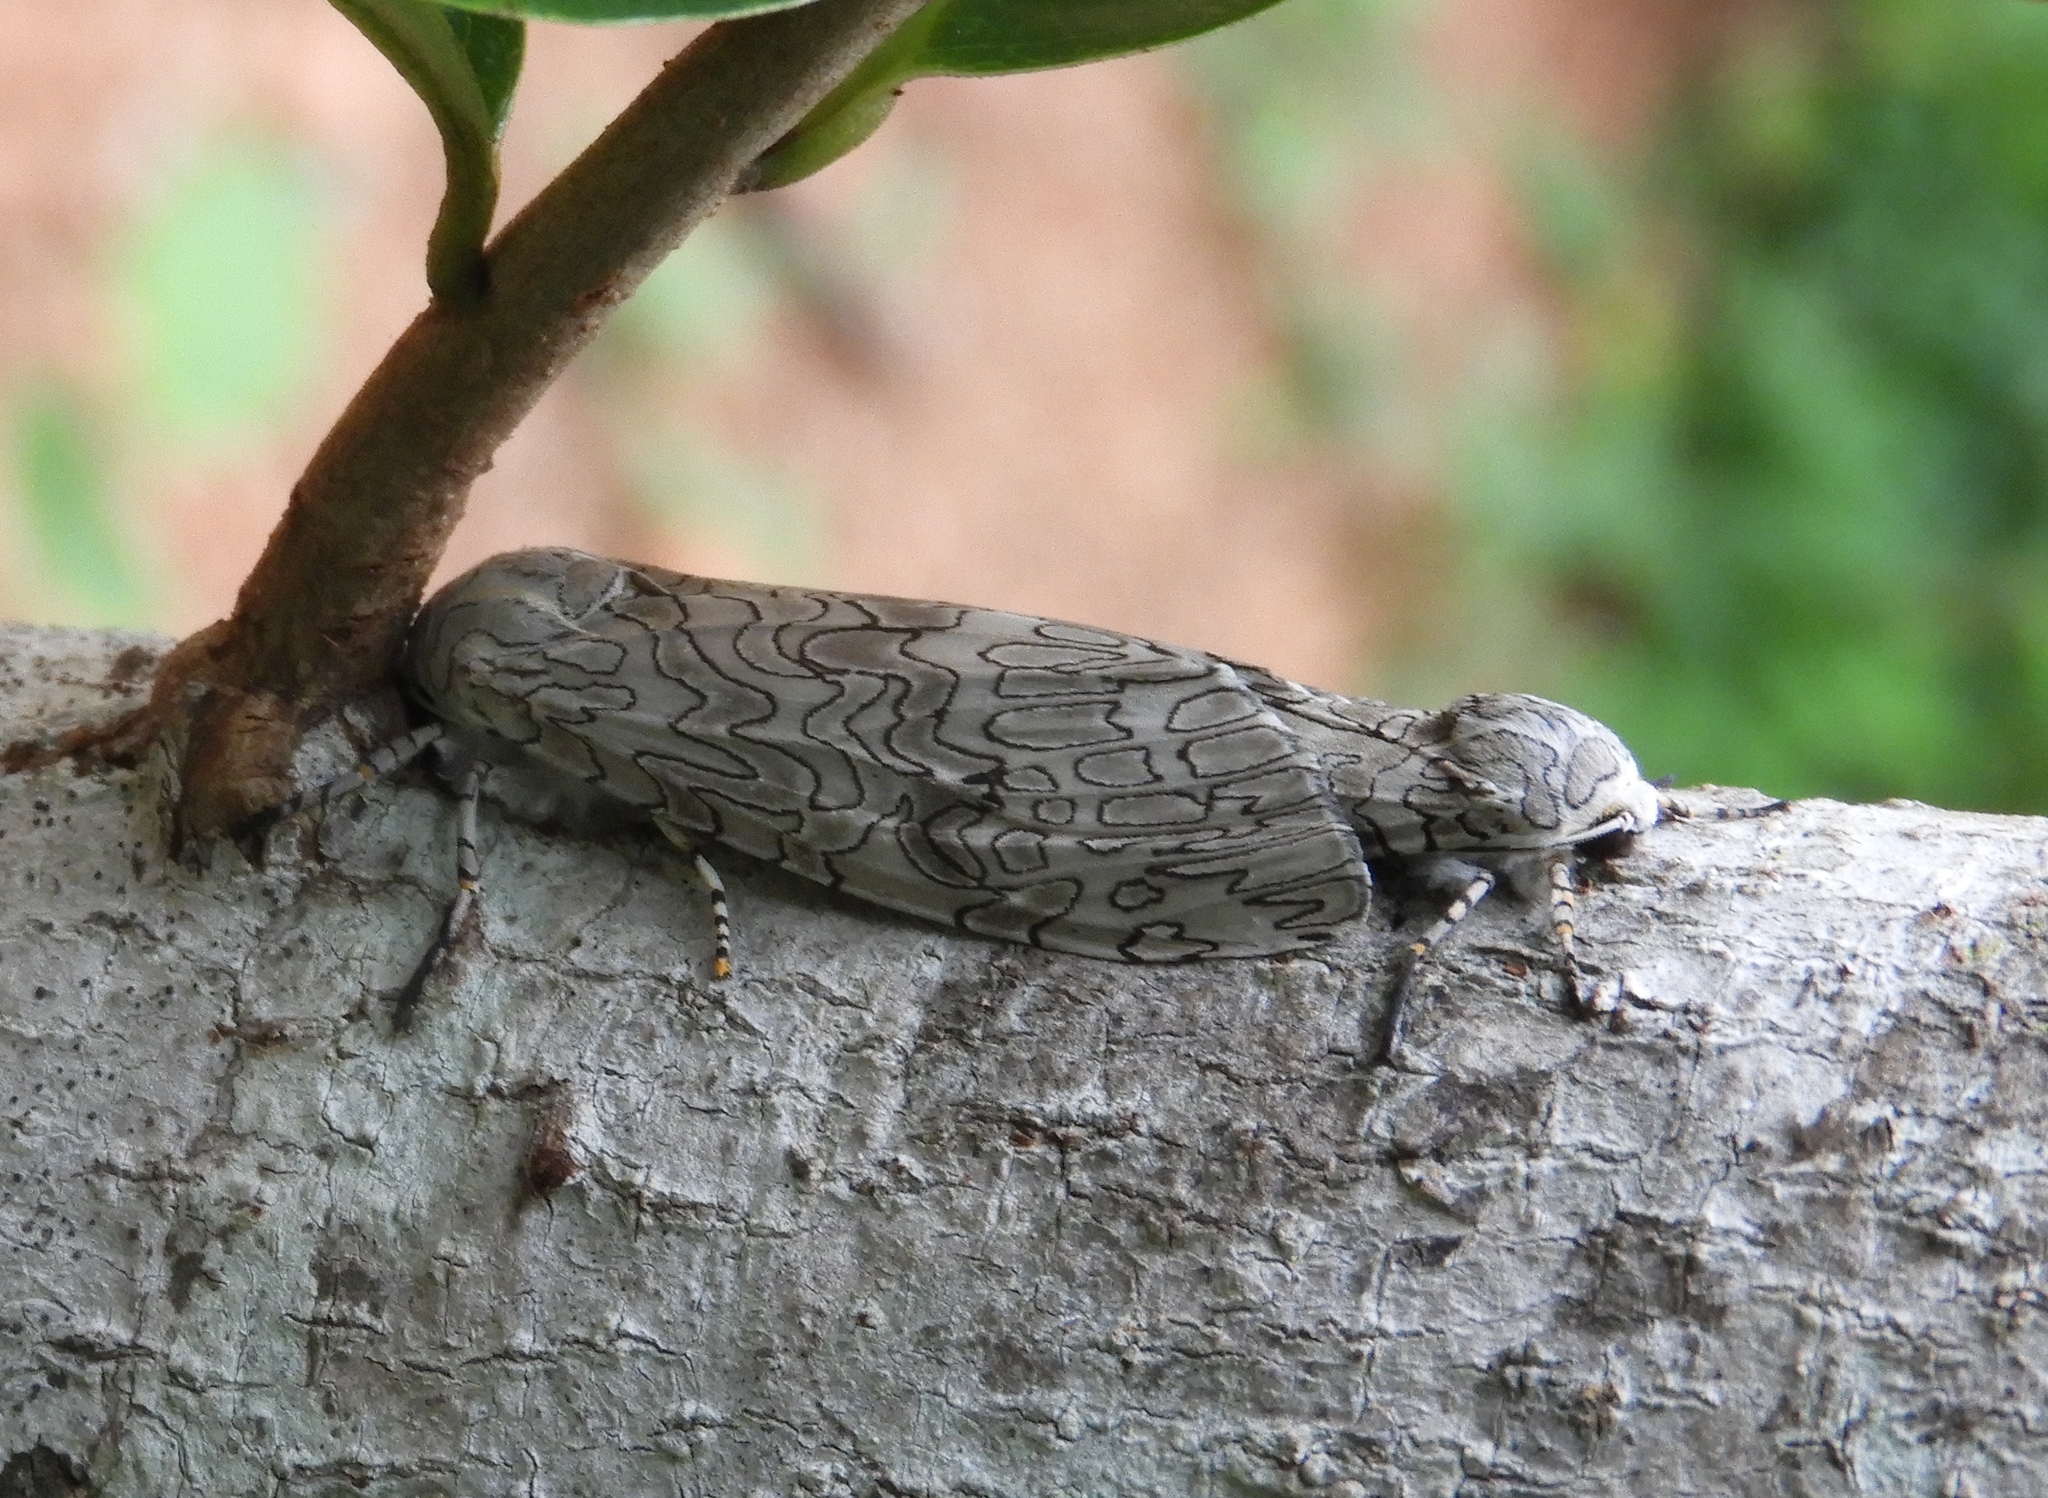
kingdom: Animalia
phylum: Arthropoda
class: Insecta
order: Lepidoptera
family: Erebidae
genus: Hypercompe
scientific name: Hypercompe suffusa
